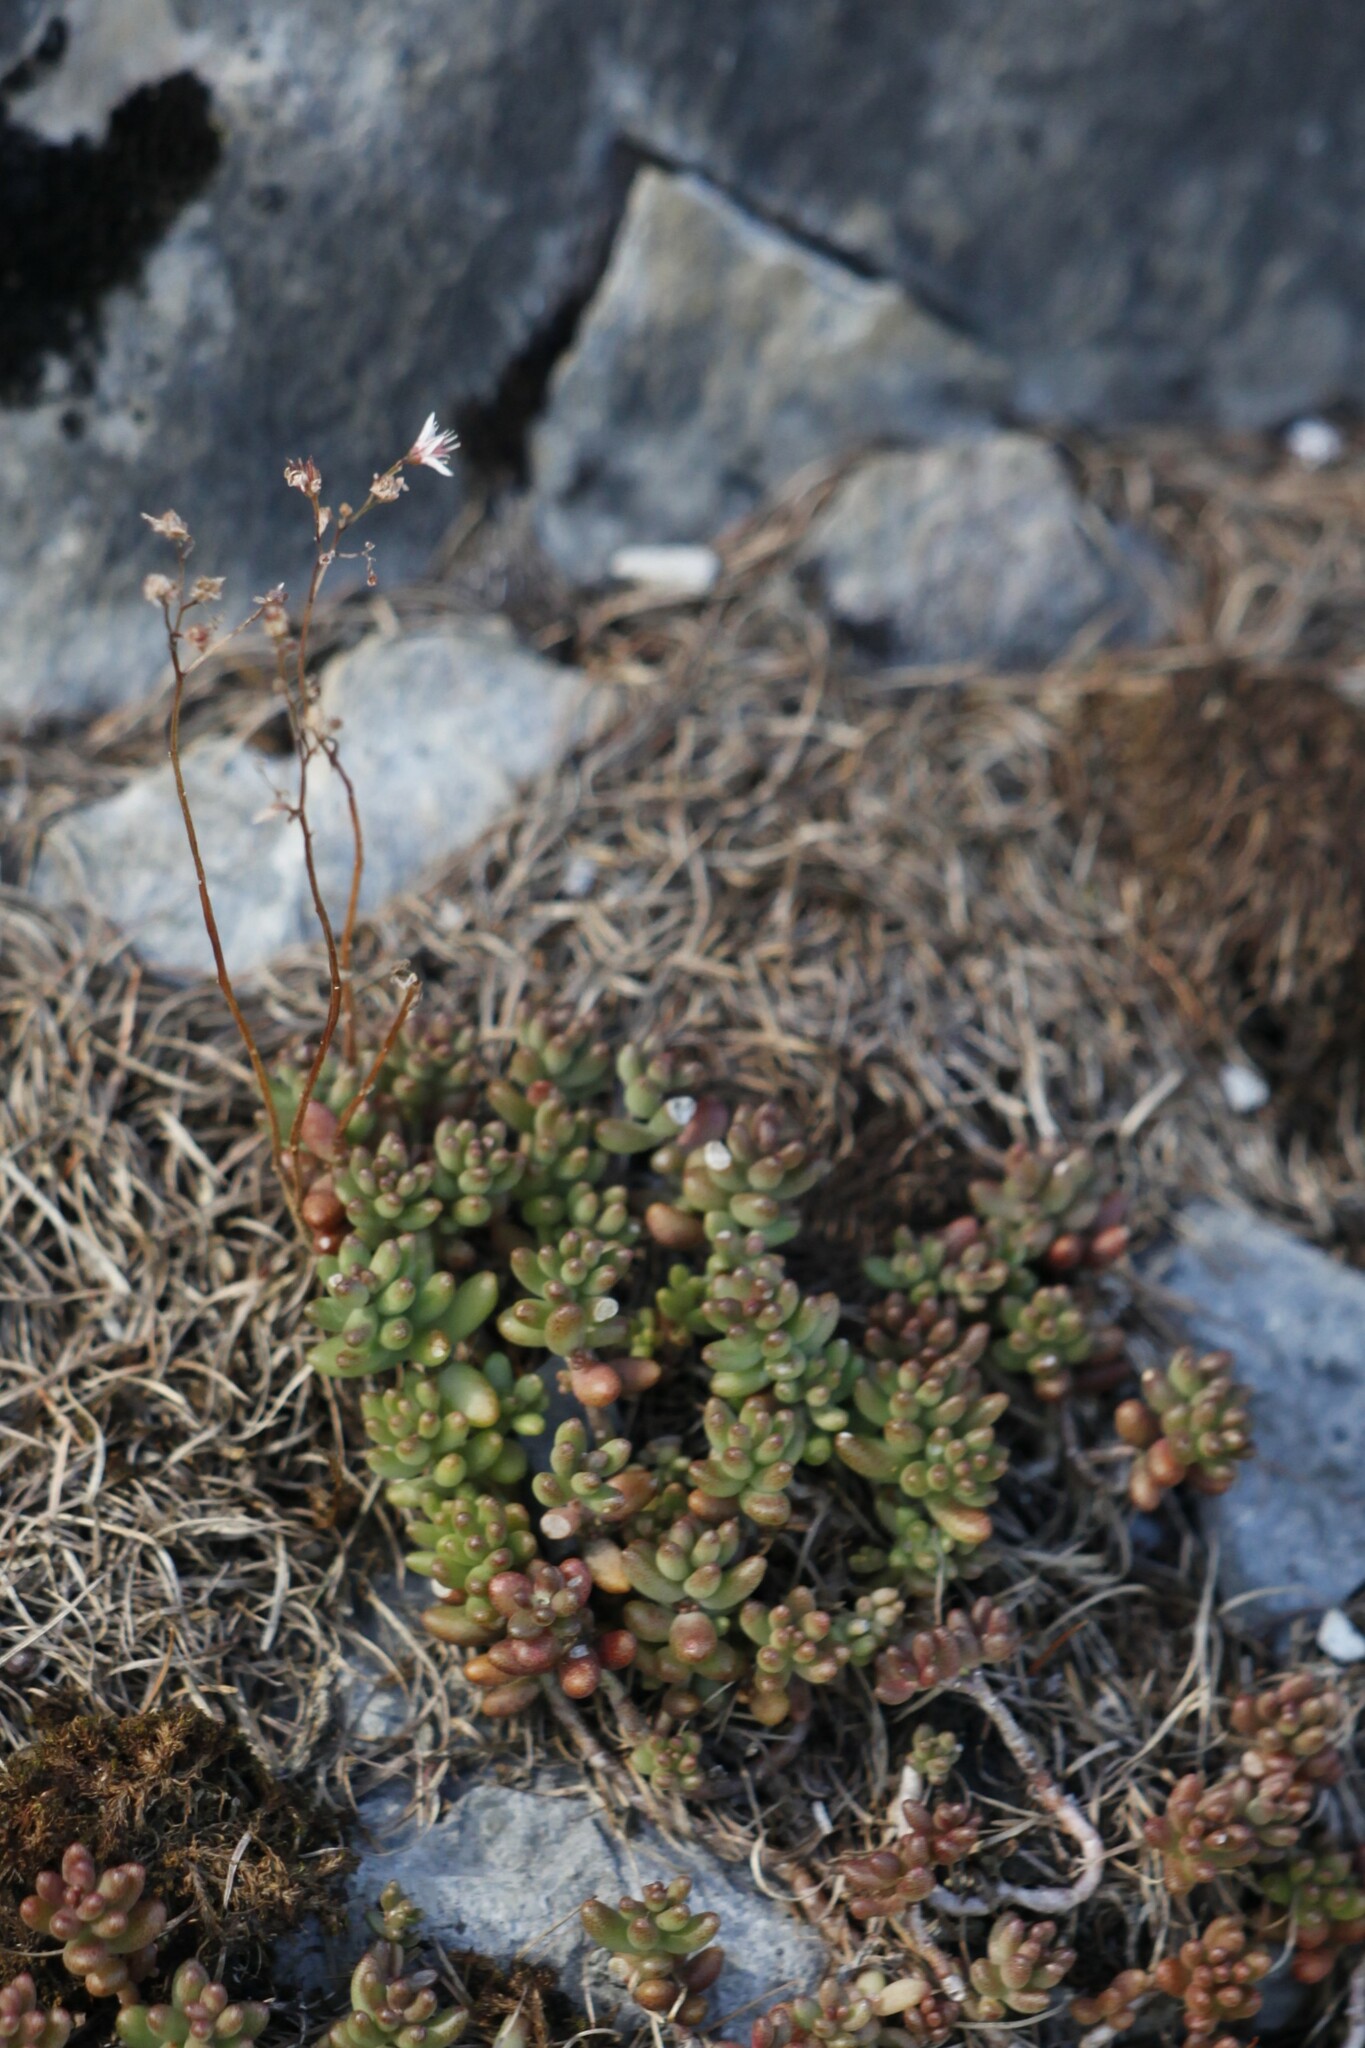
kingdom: Plantae
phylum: Tracheophyta
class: Magnoliopsida
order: Saxifragales
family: Crassulaceae
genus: Sedum
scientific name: Sedum album
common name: White stonecrop
